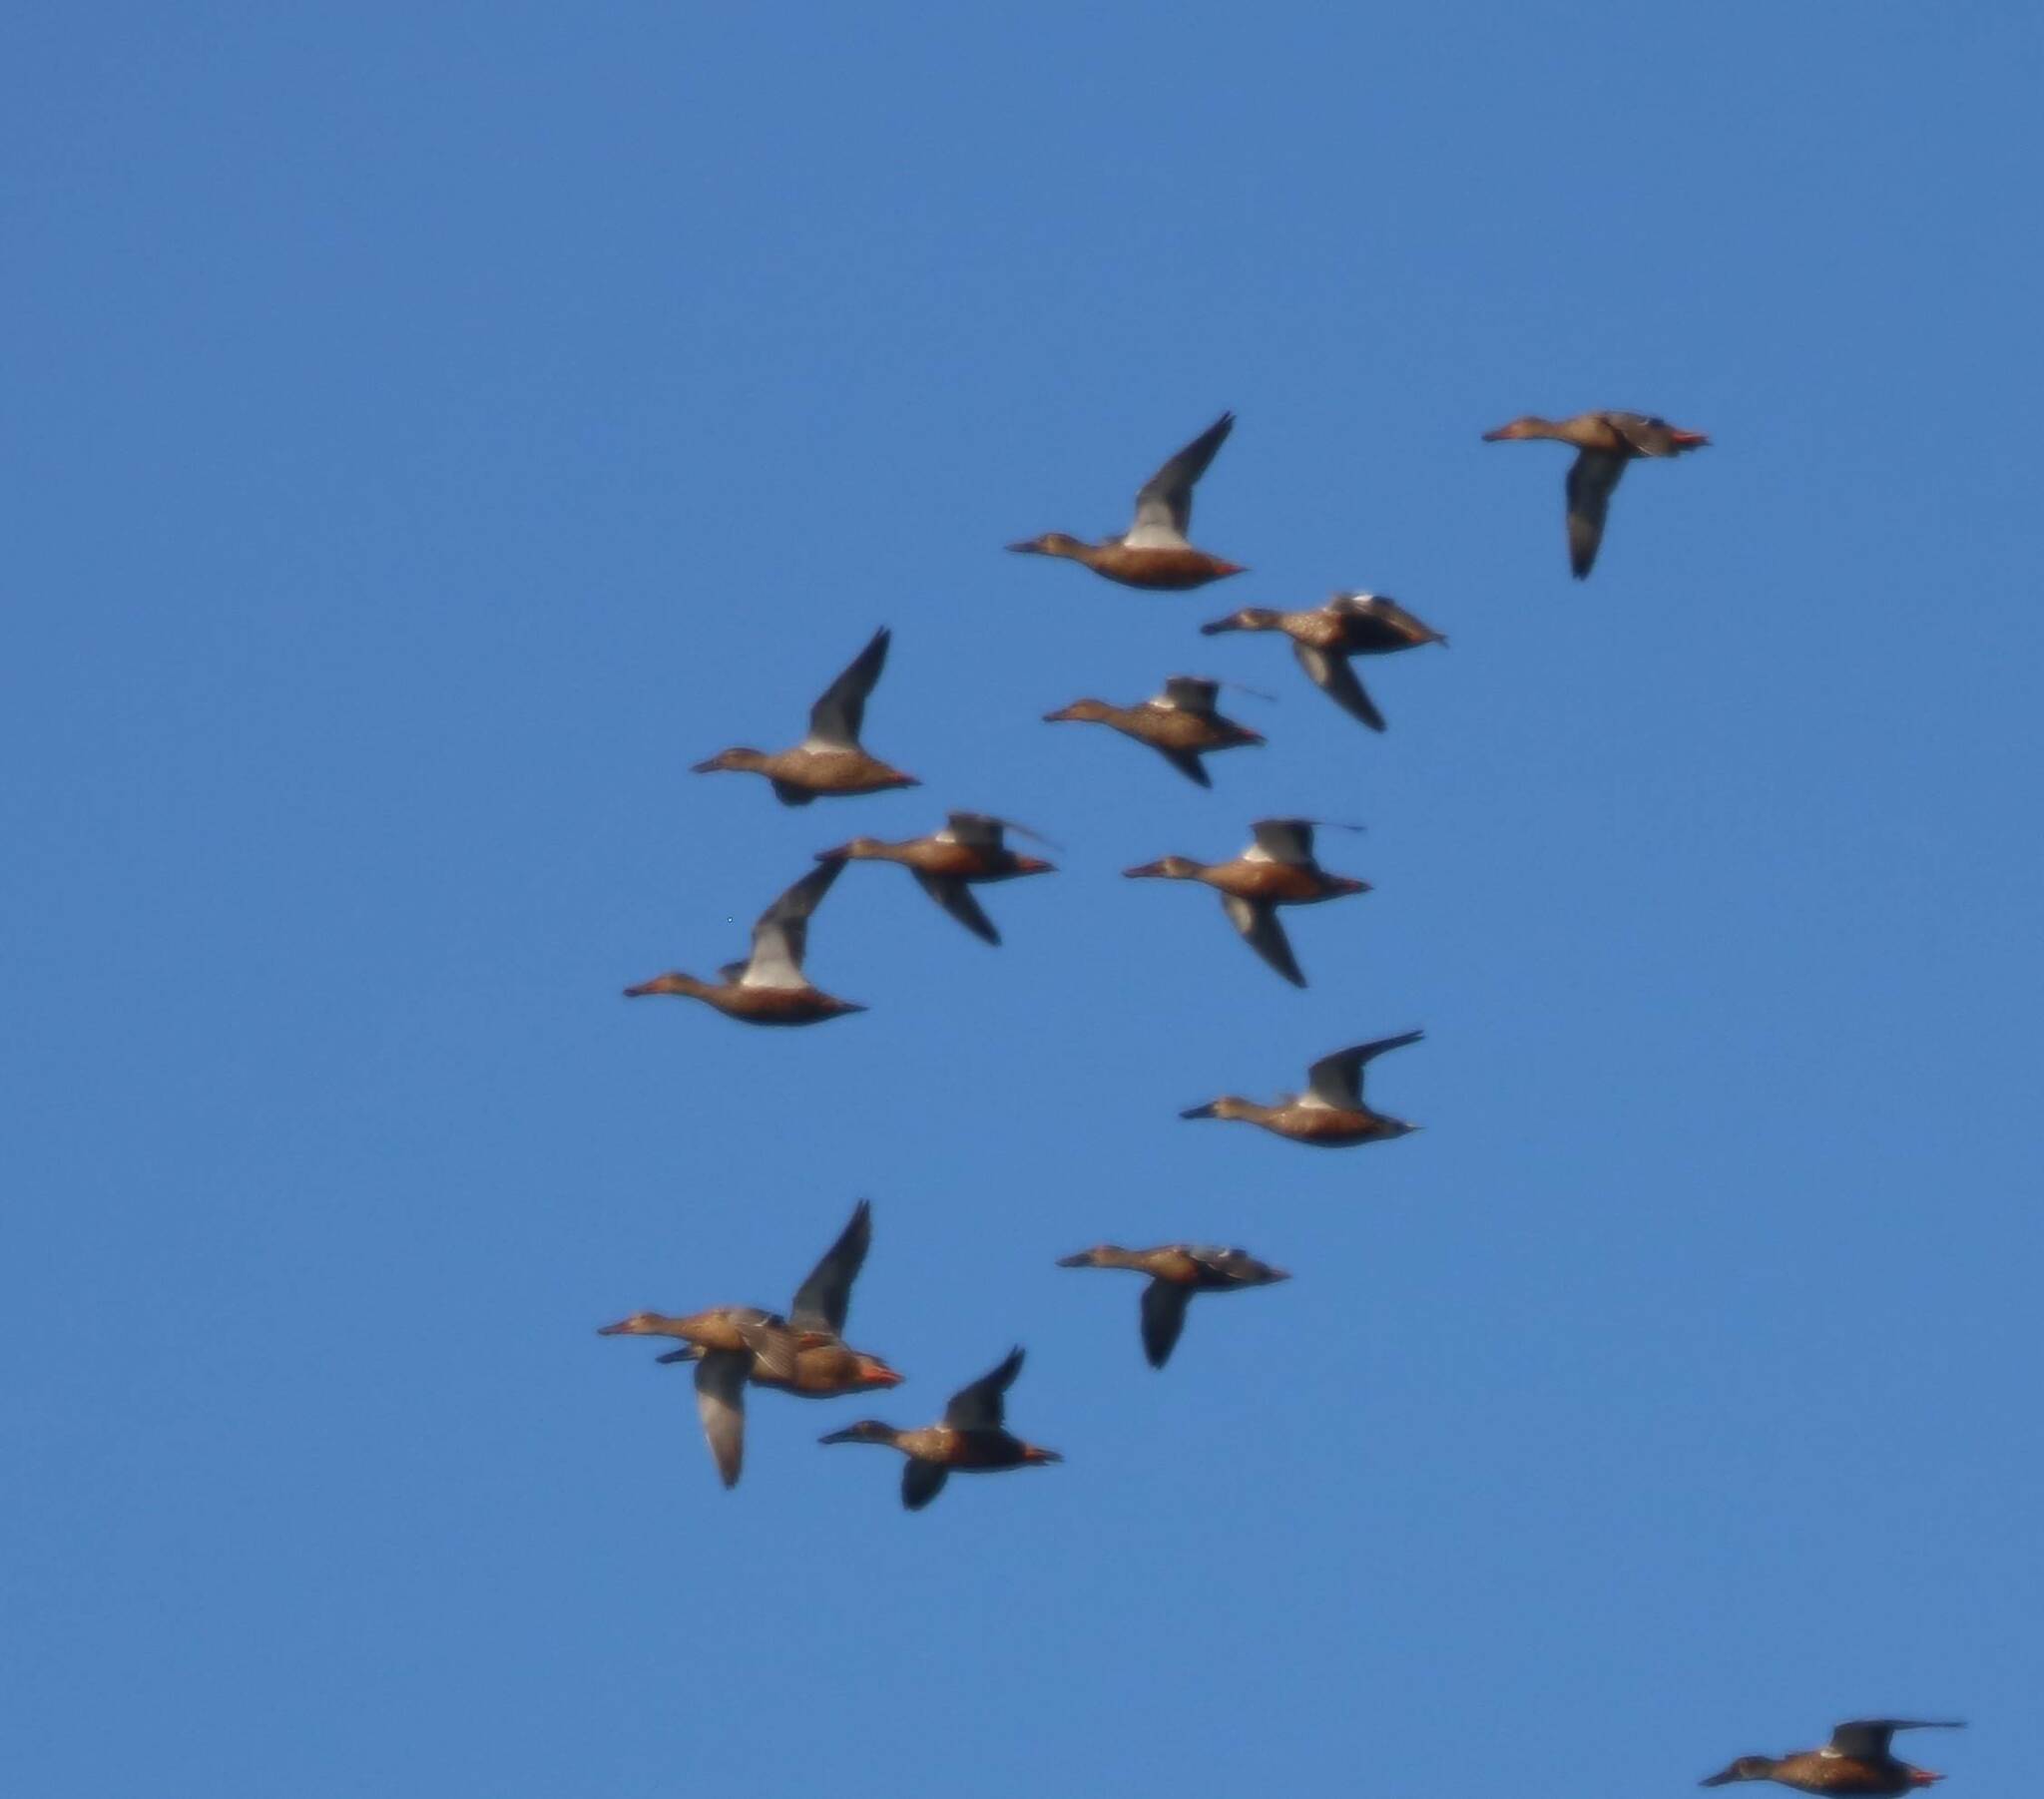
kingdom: Animalia
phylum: Chordata
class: Aves
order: Anseriformes
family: Anatidae
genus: Spatula
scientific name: Spatula clypeata
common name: Northern shoveler
